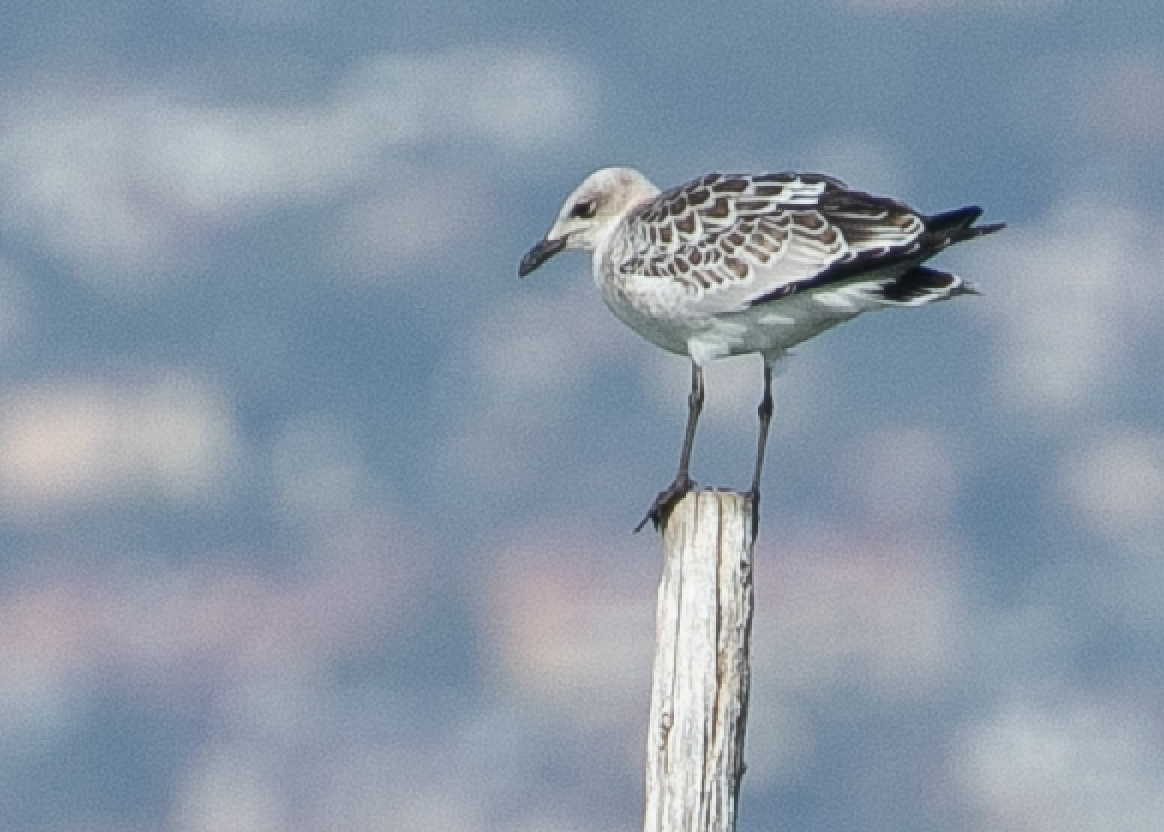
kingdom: Animalia
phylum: Chordata
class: Aves
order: Charadriiformes
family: Laridae
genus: Ichthyaetus
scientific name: Ichthyaetus melanocephalus
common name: Mediterranean gull
